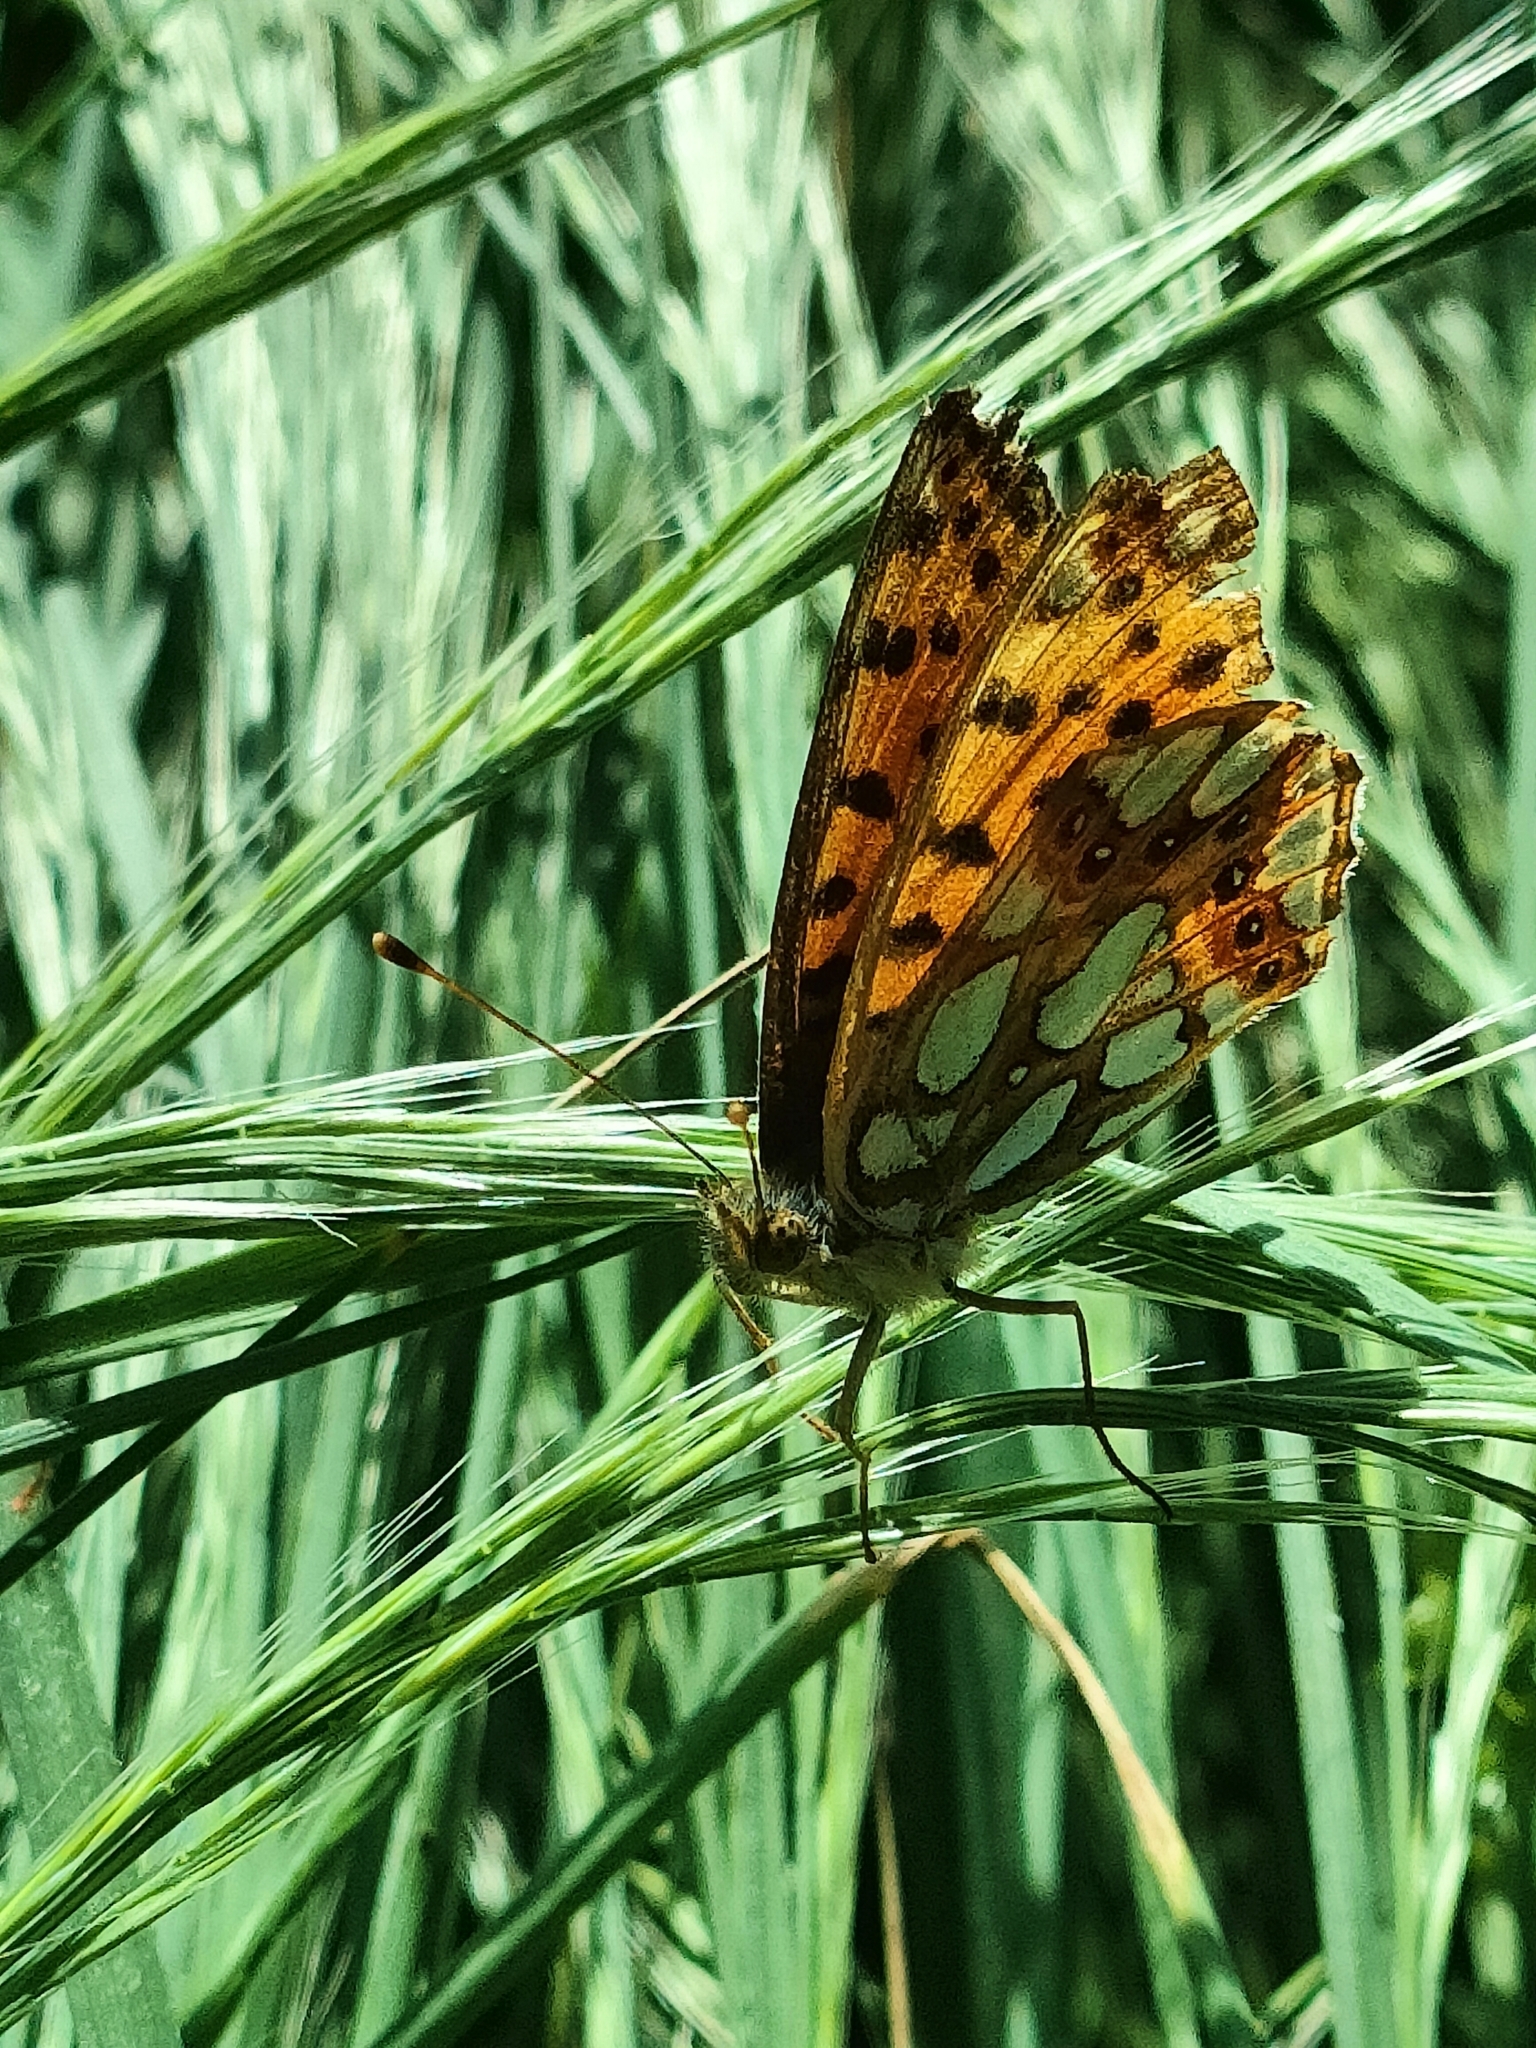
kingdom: Animalia
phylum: Arthropoda
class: Insecta
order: Lepidoptera
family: Nymphalidae
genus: Issoria
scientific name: Issoria lathonia
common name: Queen of spain fritillary
